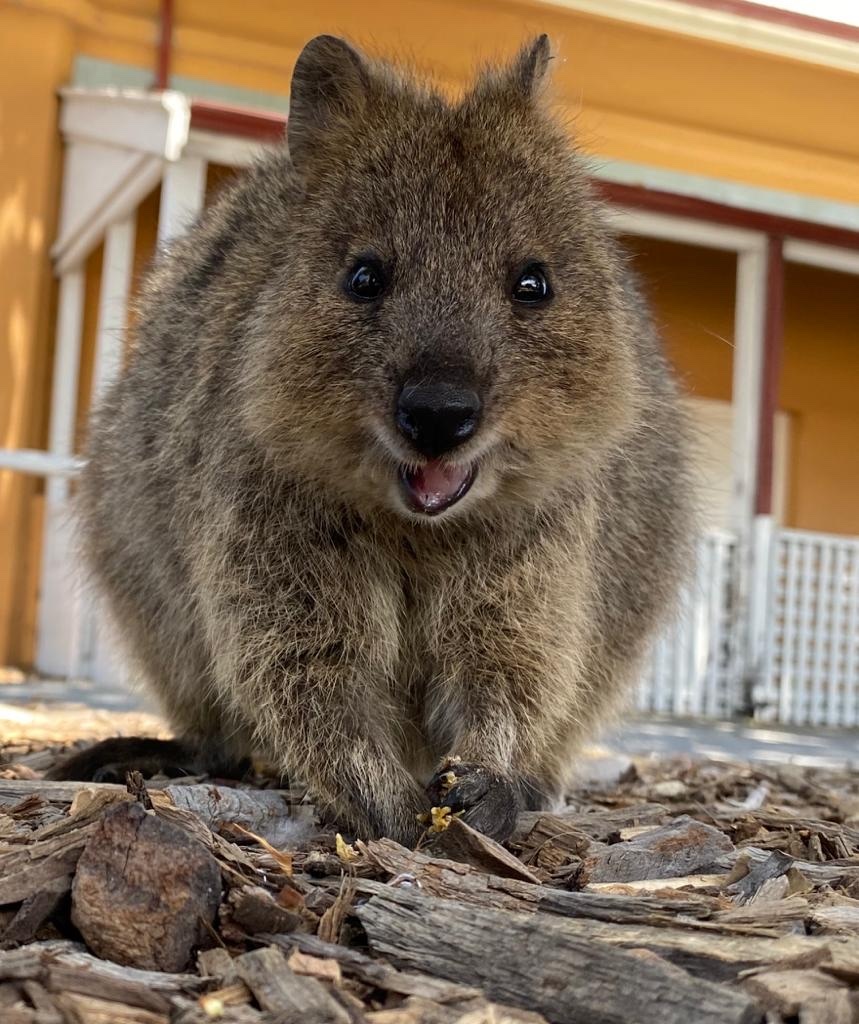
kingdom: Animalia
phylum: Chordata
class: Mammalia
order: Diprotodontia
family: Macropodidae
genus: Setonix
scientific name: Setonix brachyurus
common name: Quokka
